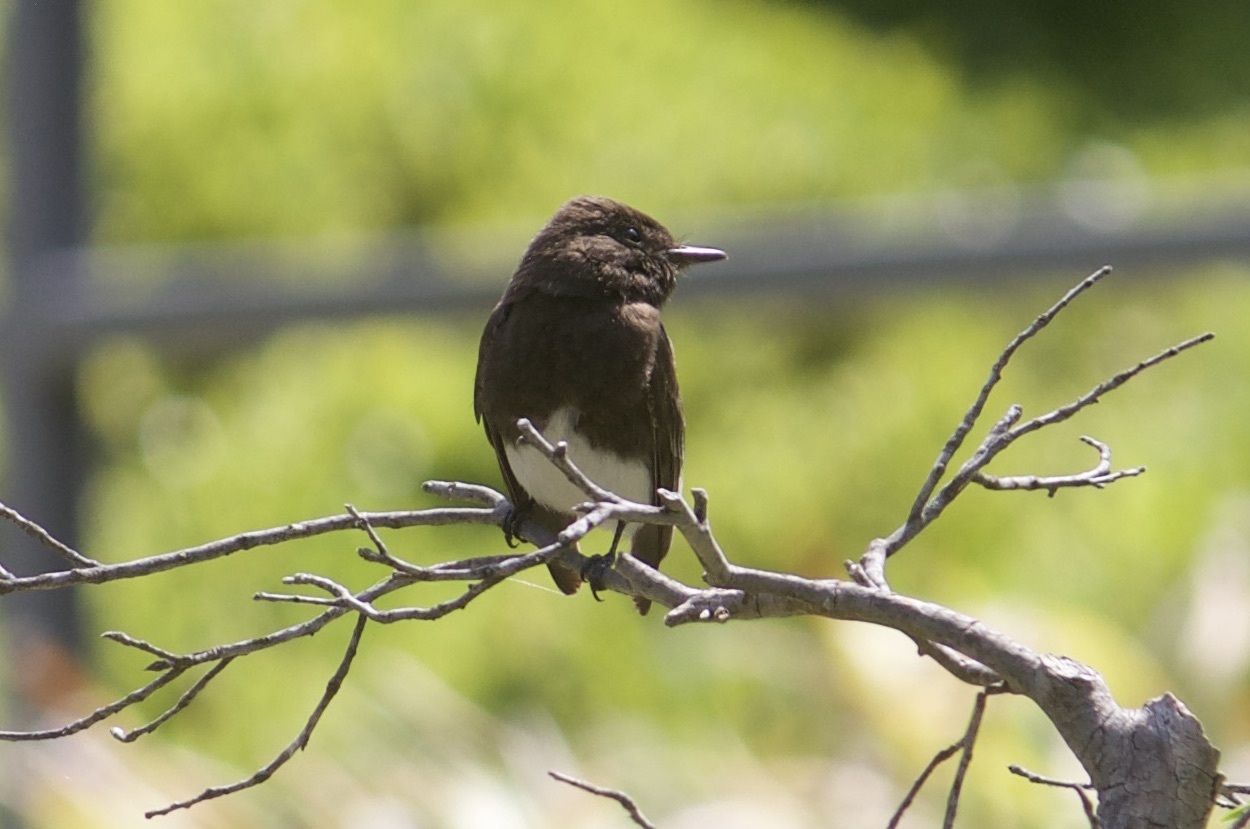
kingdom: Animalia
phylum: Chordata
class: Aves
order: Passeriformes
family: Tyrannidae
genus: Sayornis
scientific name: Sayornis nigricans
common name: Black phoebe
